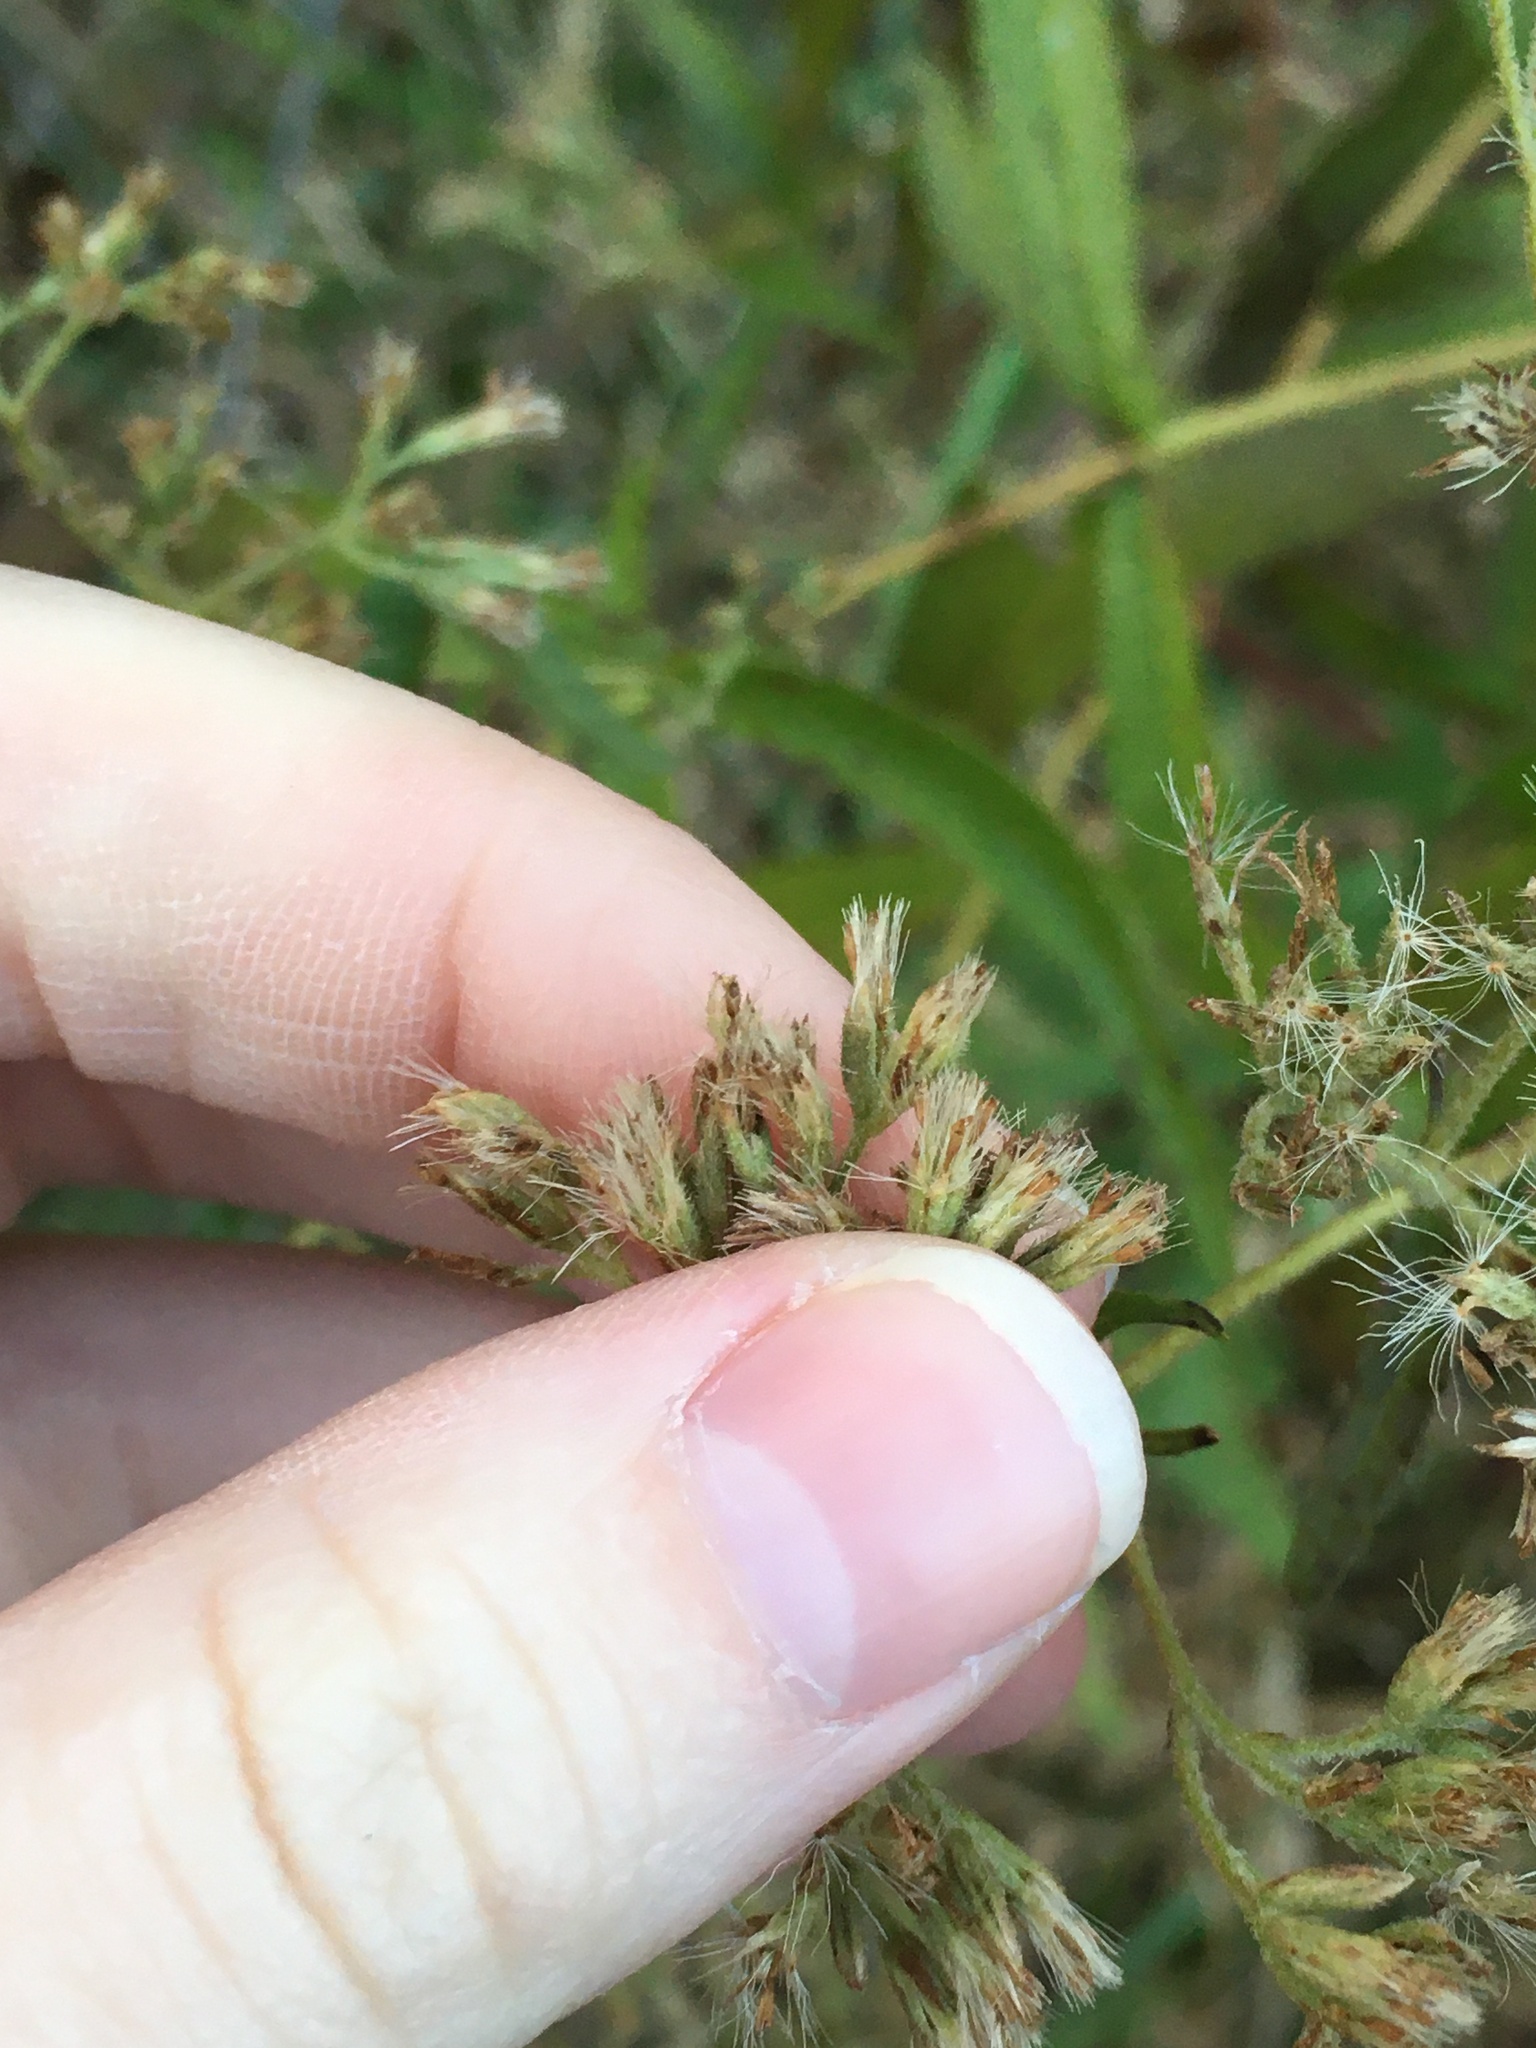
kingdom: Plantae
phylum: Tracheophyta
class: Magnoliopsida
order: Asterales
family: Asteraceae
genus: Eupatorium
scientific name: Eupatorium perfoliatum
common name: Boneset
